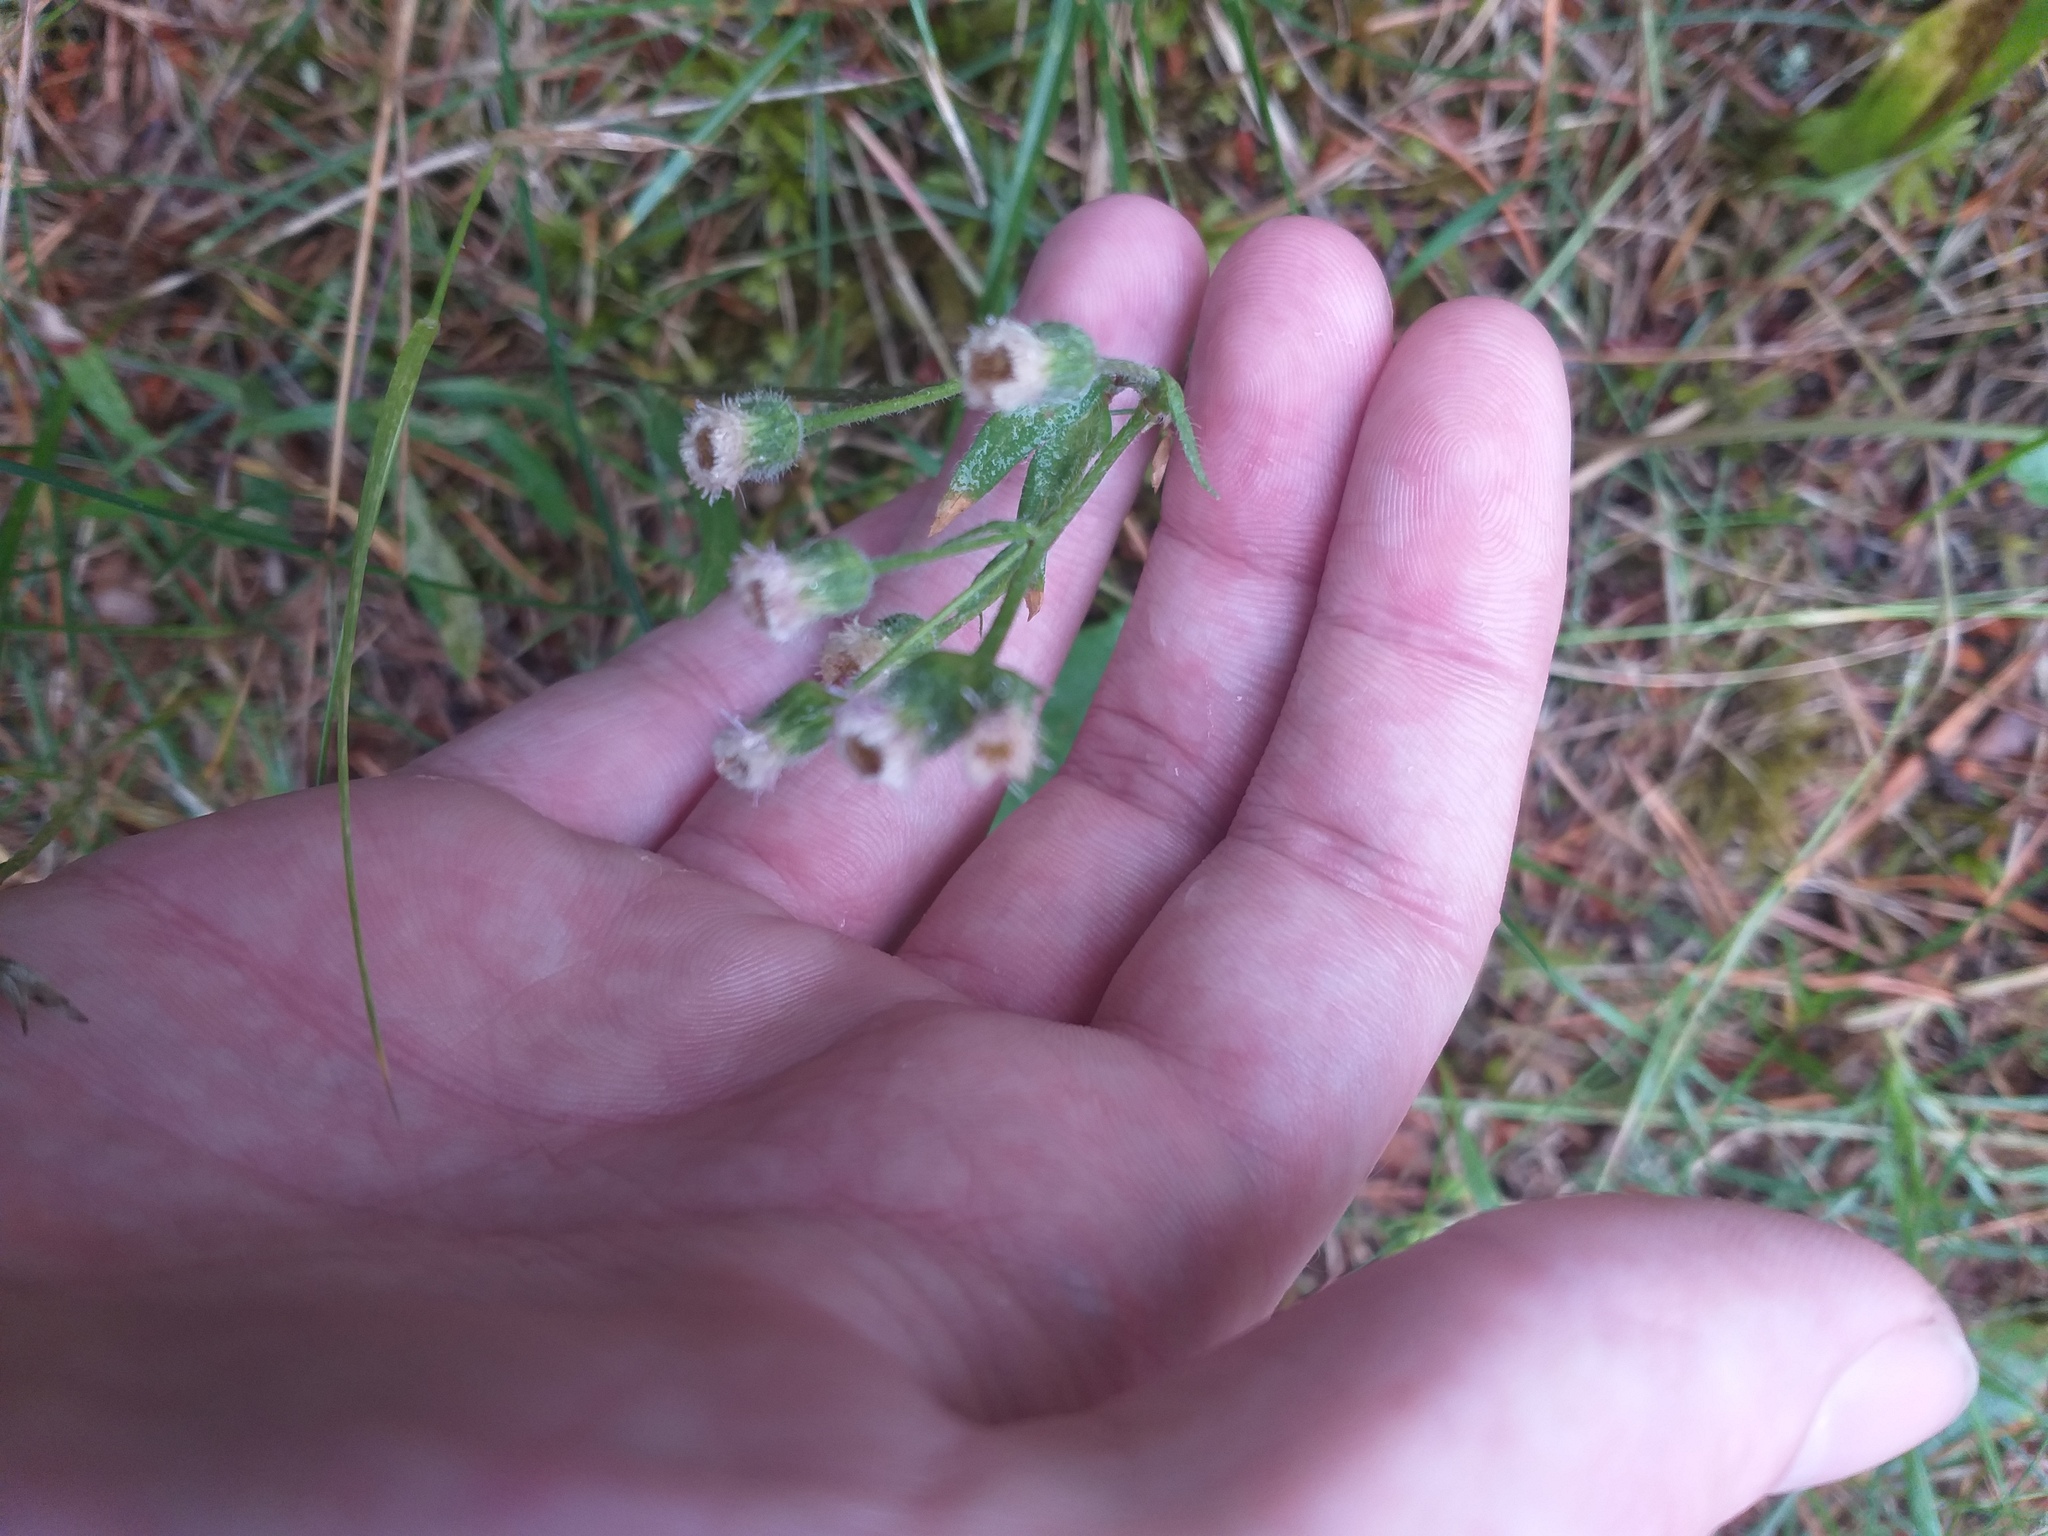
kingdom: Plantae
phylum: Tracheophyta
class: Magnoliopsida
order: Asterales
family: Asteraceae
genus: Erigeron
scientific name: Erigeron acris
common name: Blue fleabane
